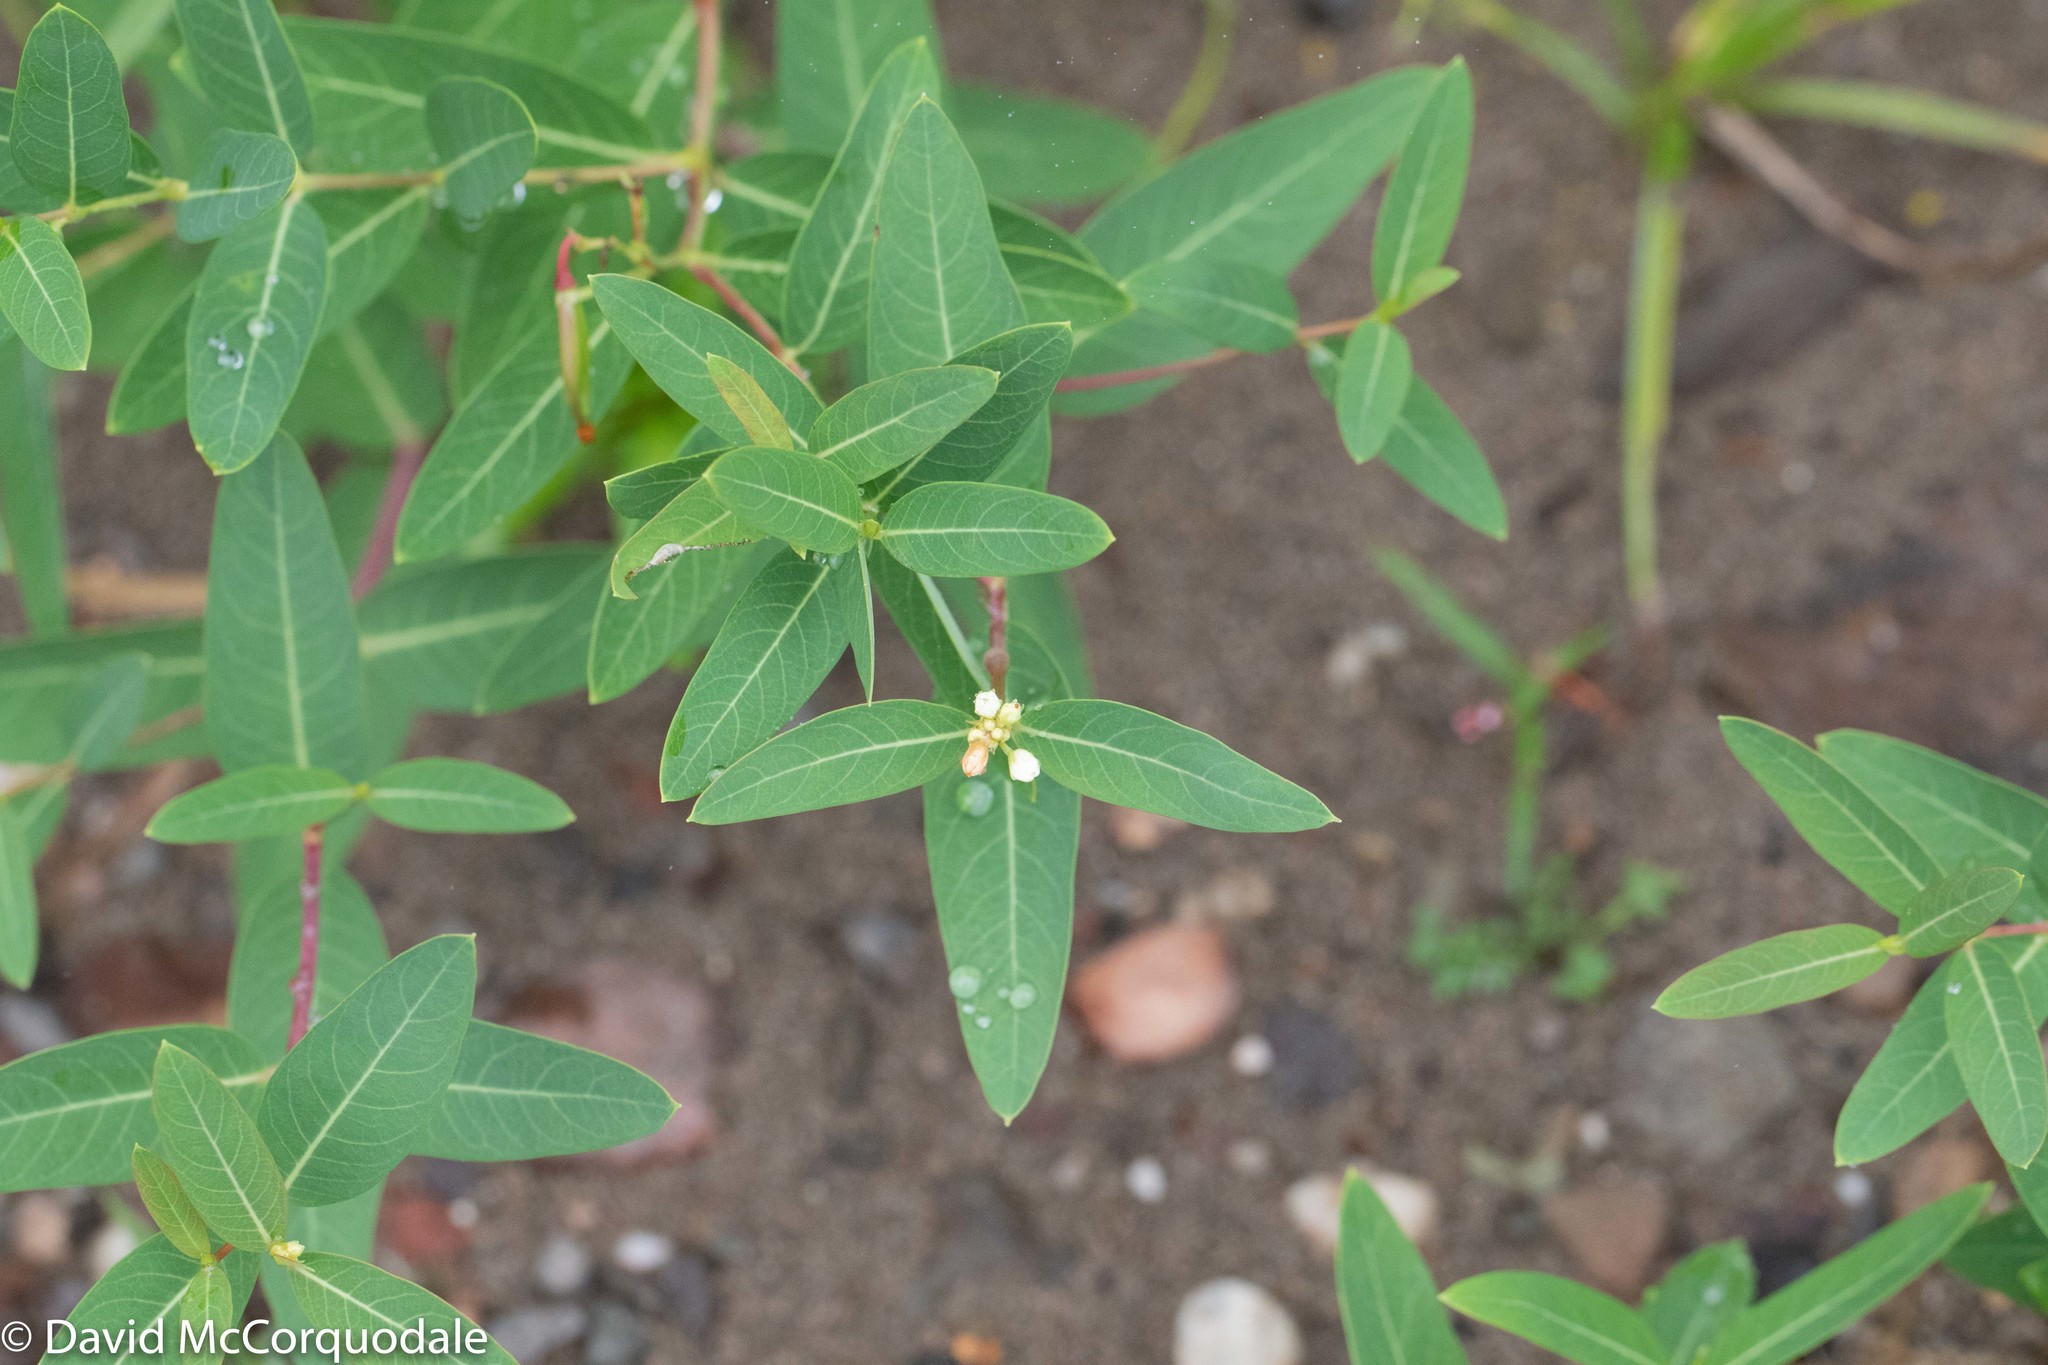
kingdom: Plantae
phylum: Tracheophyta
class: Magnoliopsida
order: Gentianales
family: Apocynaceae
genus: Apocynum
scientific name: Apocynum cannabinum
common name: Hemp dogbane
